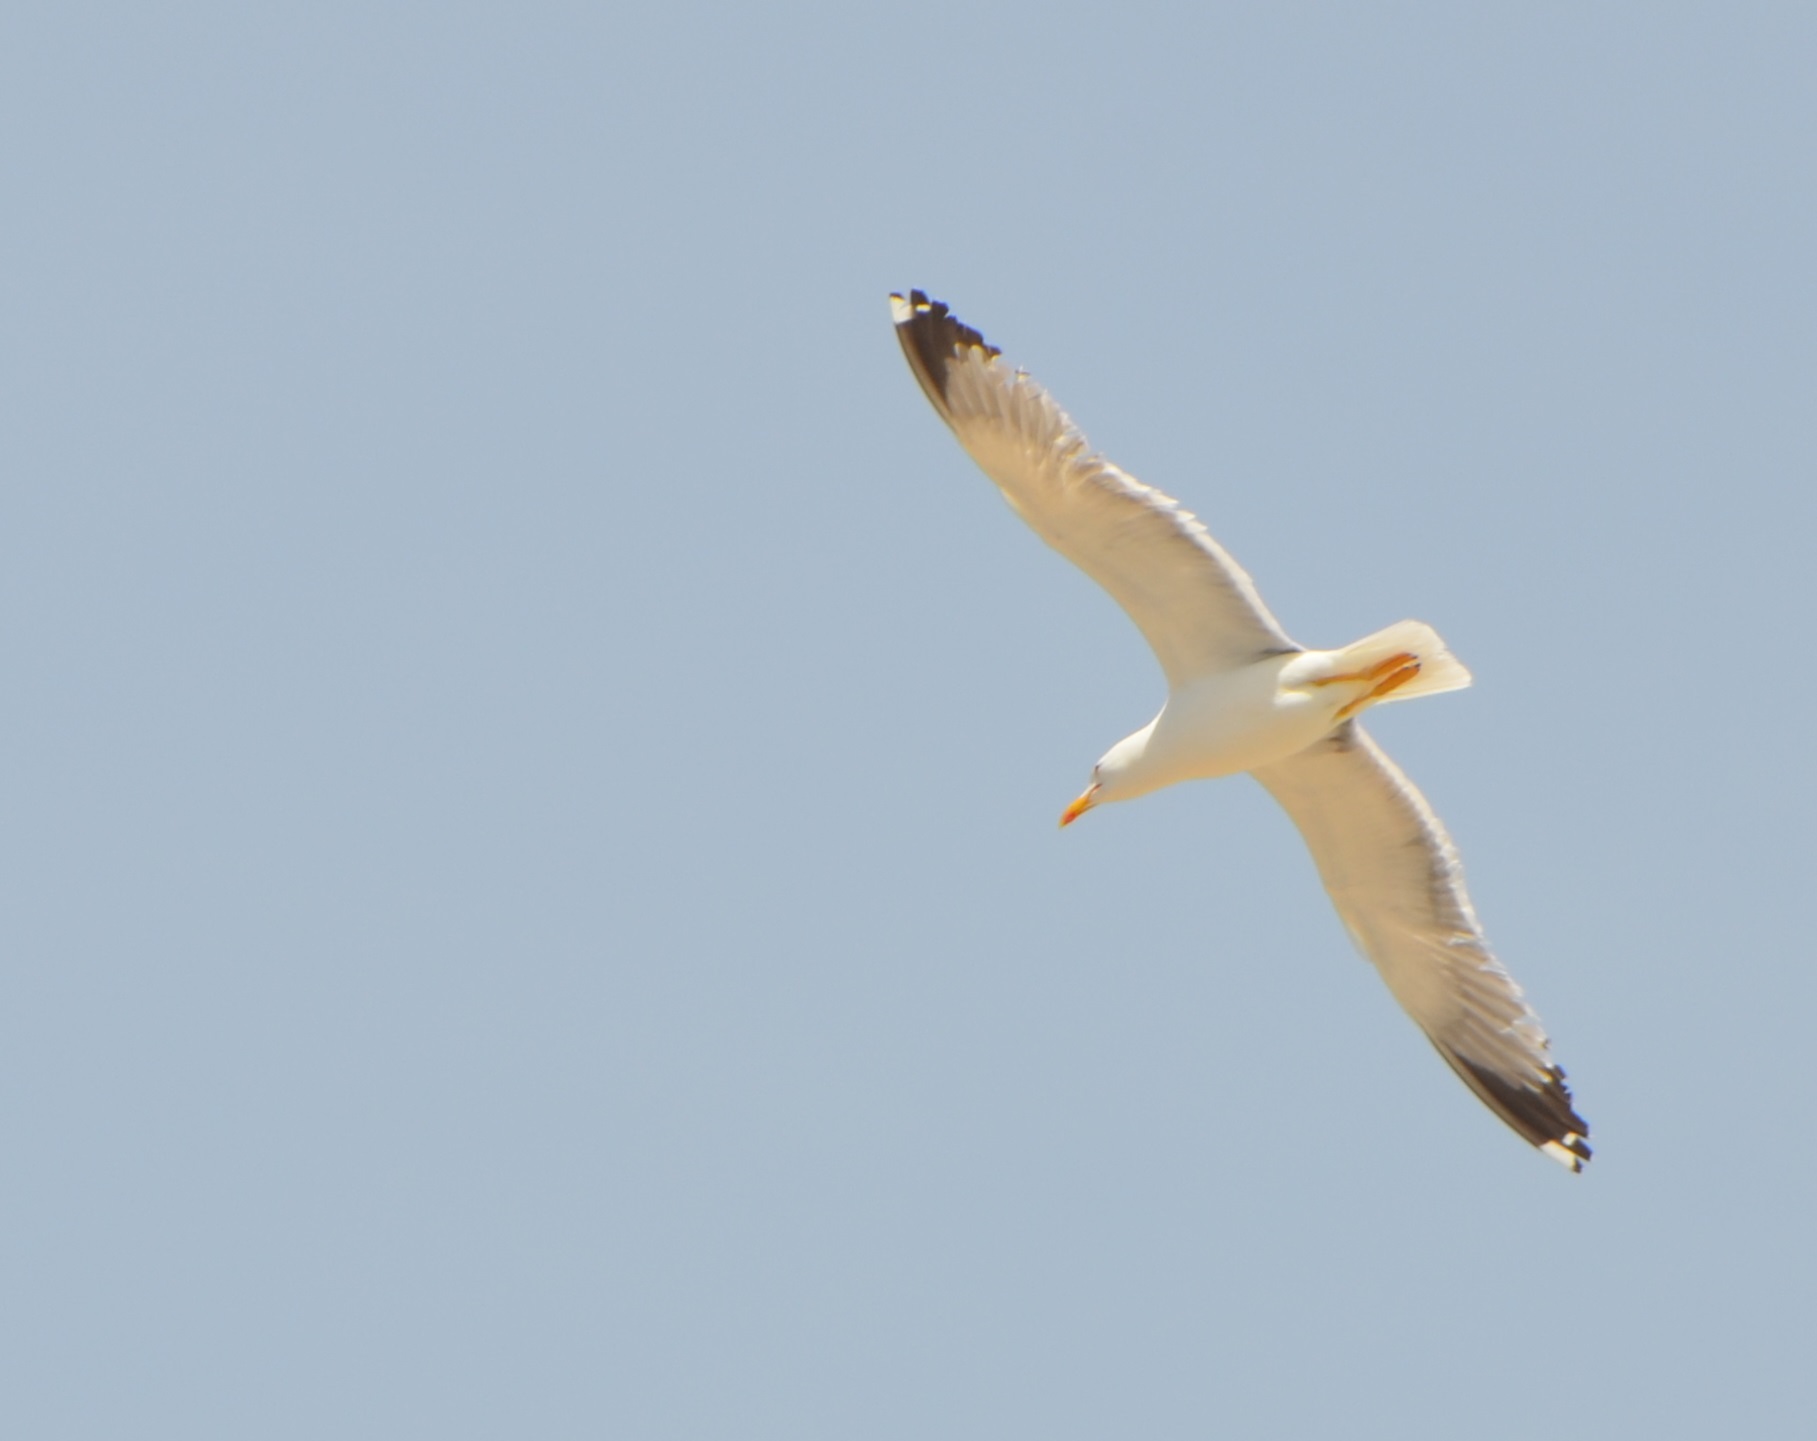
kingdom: Animalia
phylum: Chordata
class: Aves
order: Charadriiformes
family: Laridae
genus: Larus
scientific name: Larus michahellis
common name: Yellow-legged gull
